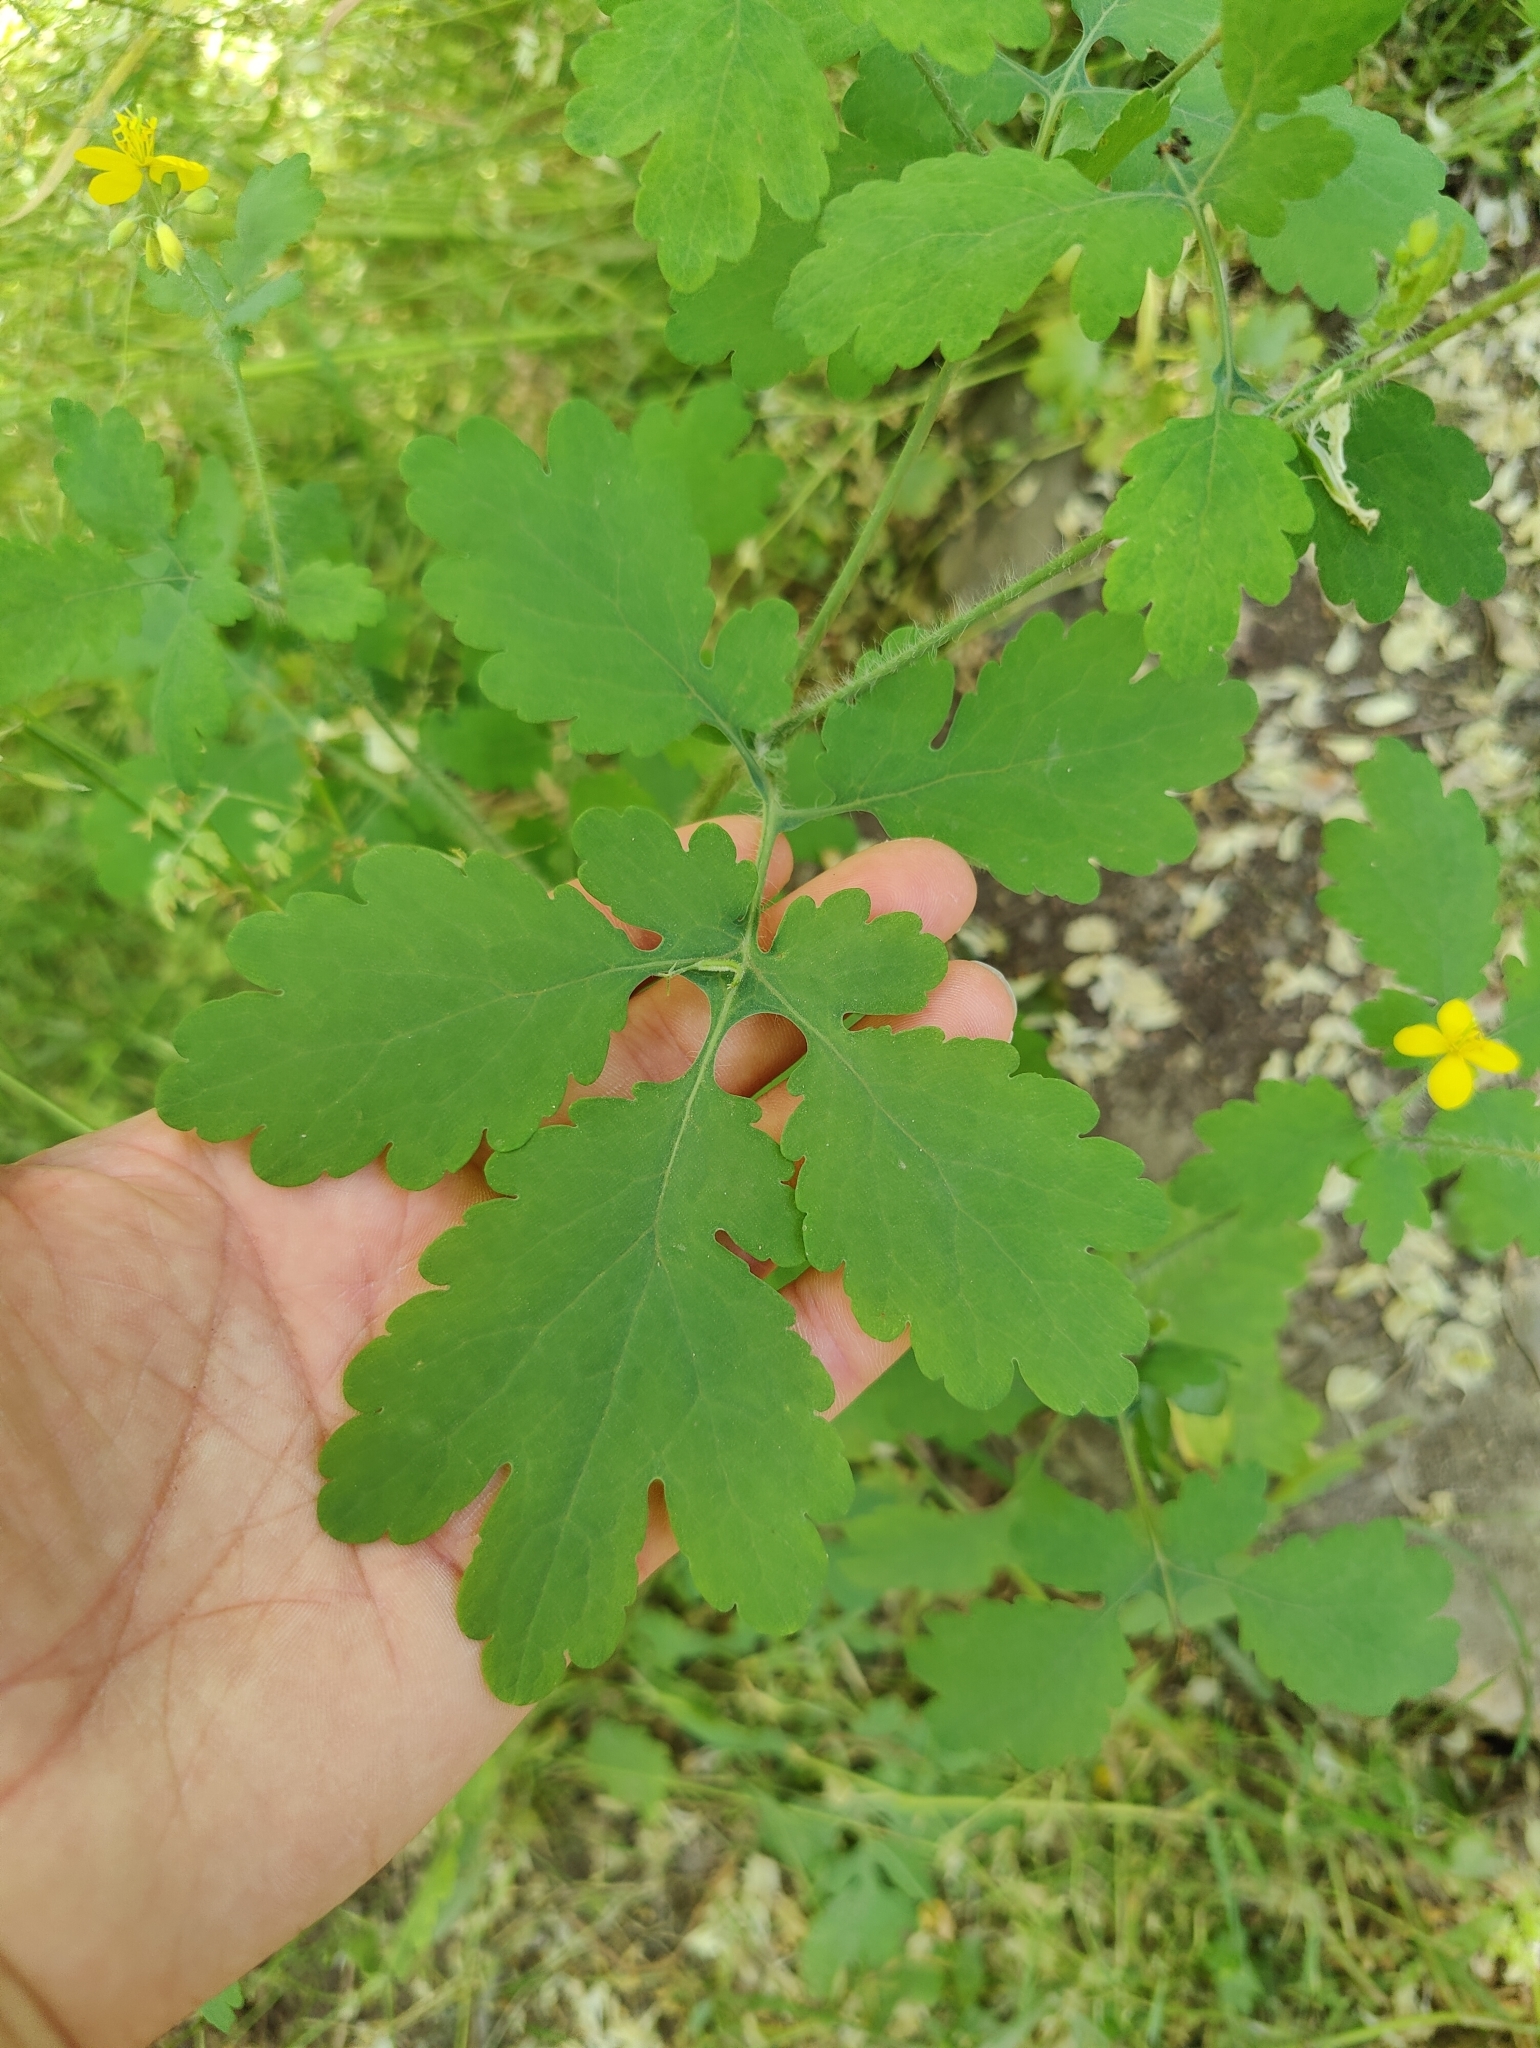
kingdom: Plantae
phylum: Tracheophyta
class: Magnoliopsida
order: Ranunculales
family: Papaveraceae
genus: Chelidonium
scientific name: Chelidonium majus
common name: Greater celandine
